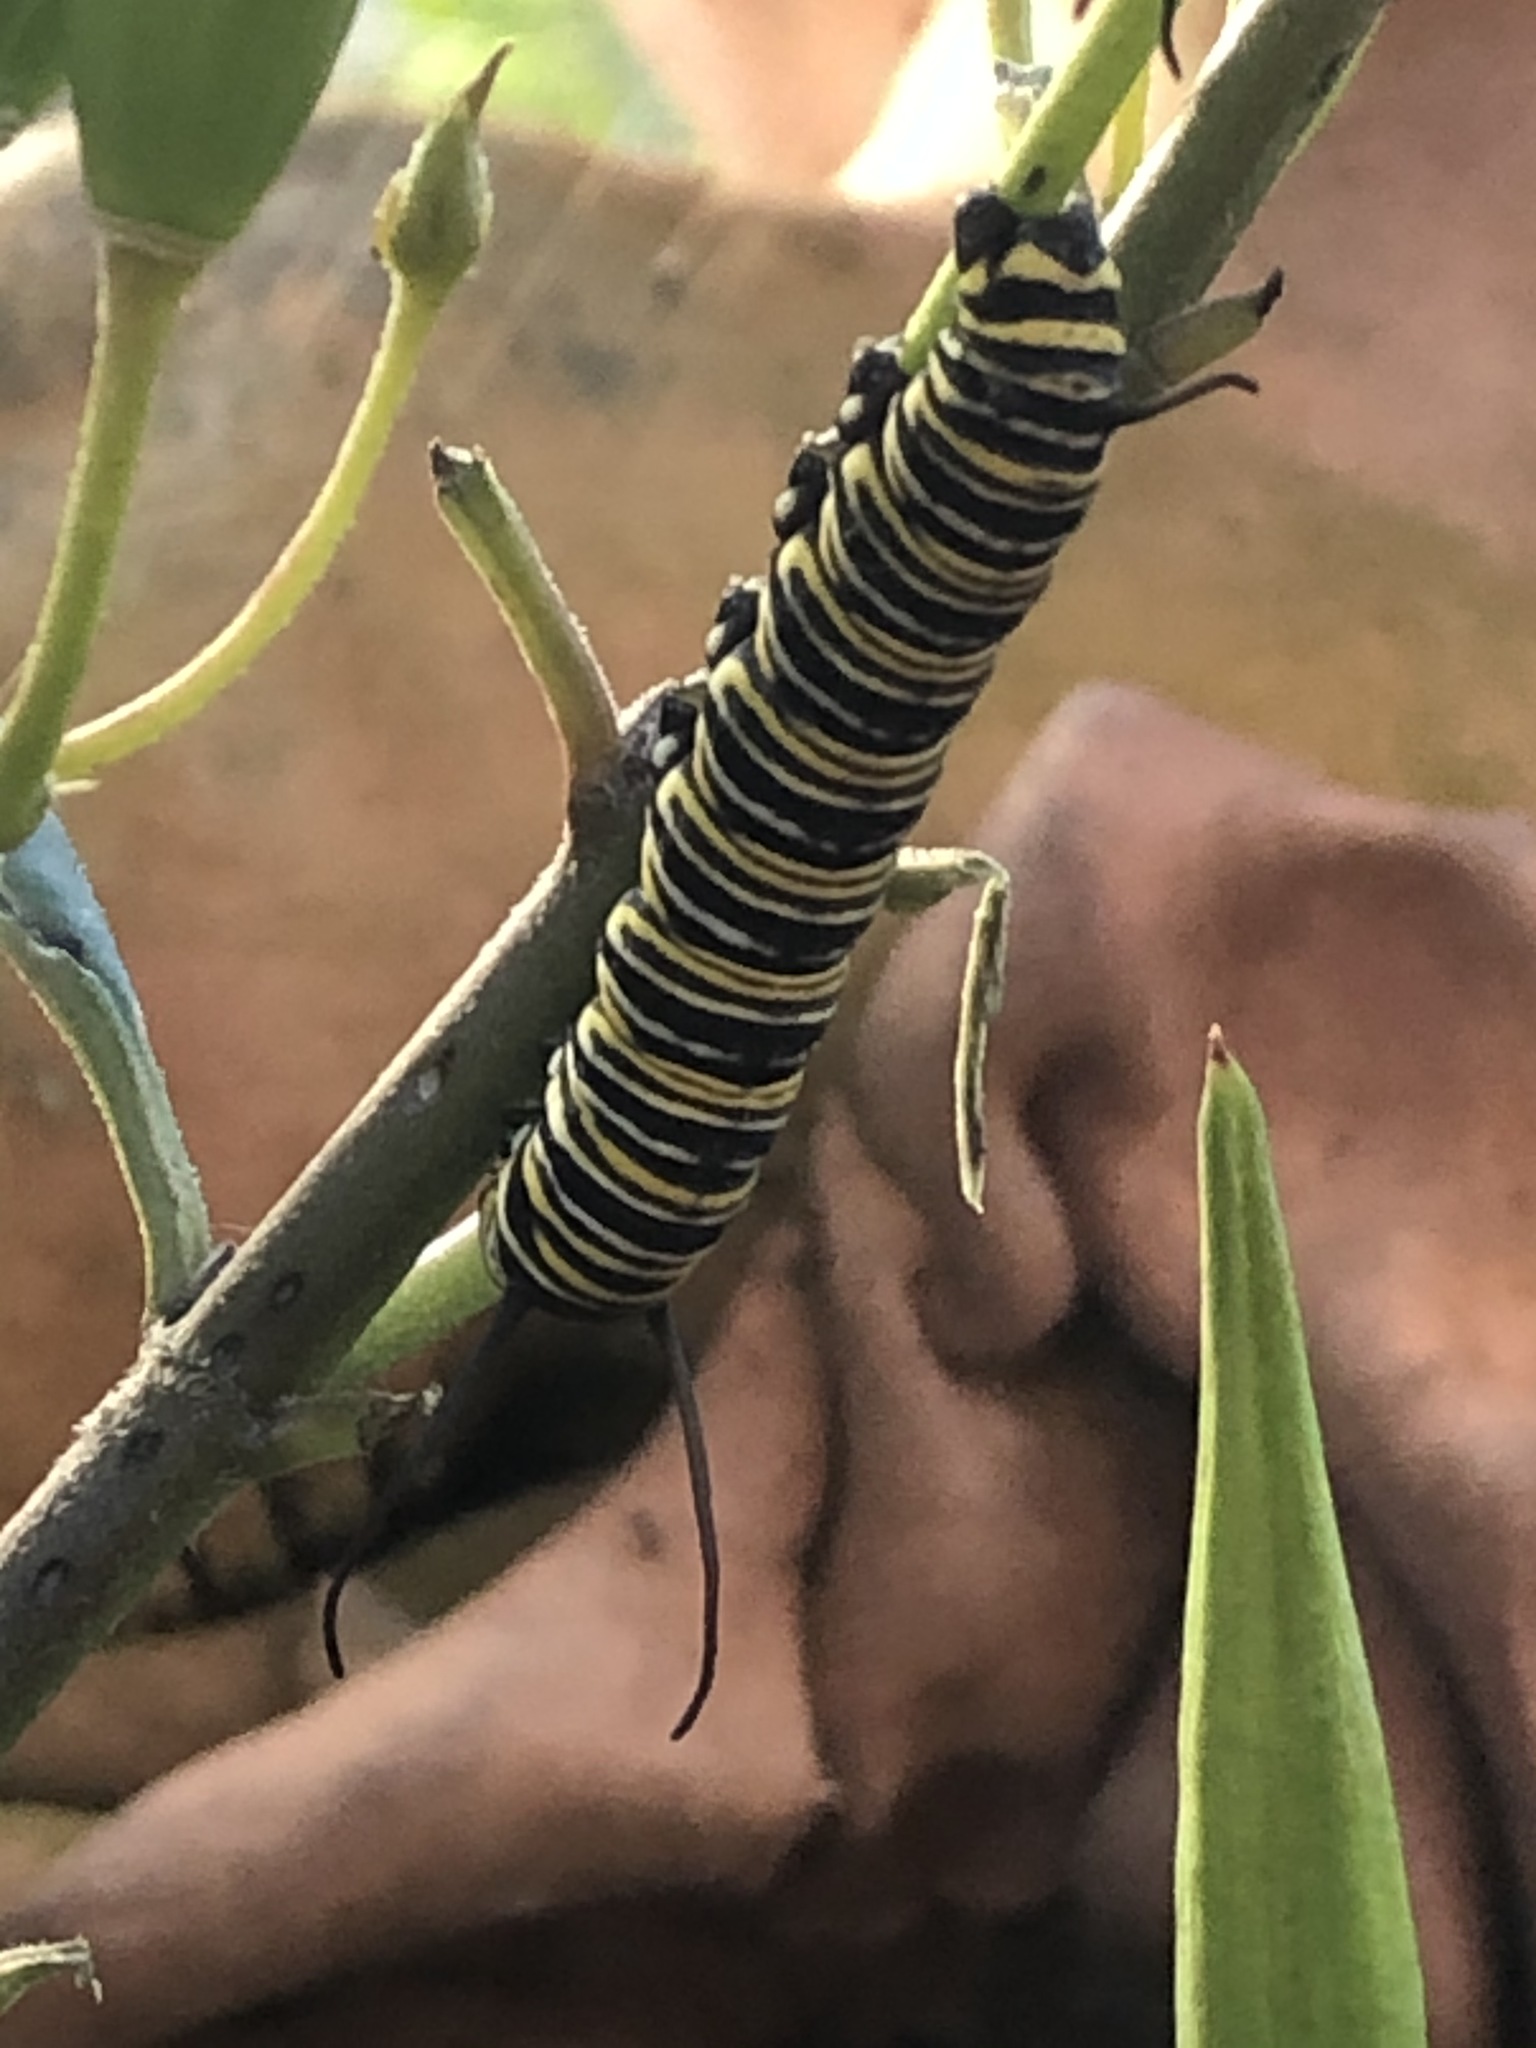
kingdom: Animalia
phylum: Arthropoda
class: Insecta
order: Lepidoptera
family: Nymphalidae
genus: Danaus
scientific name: Danaus plexippus
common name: Monarch
